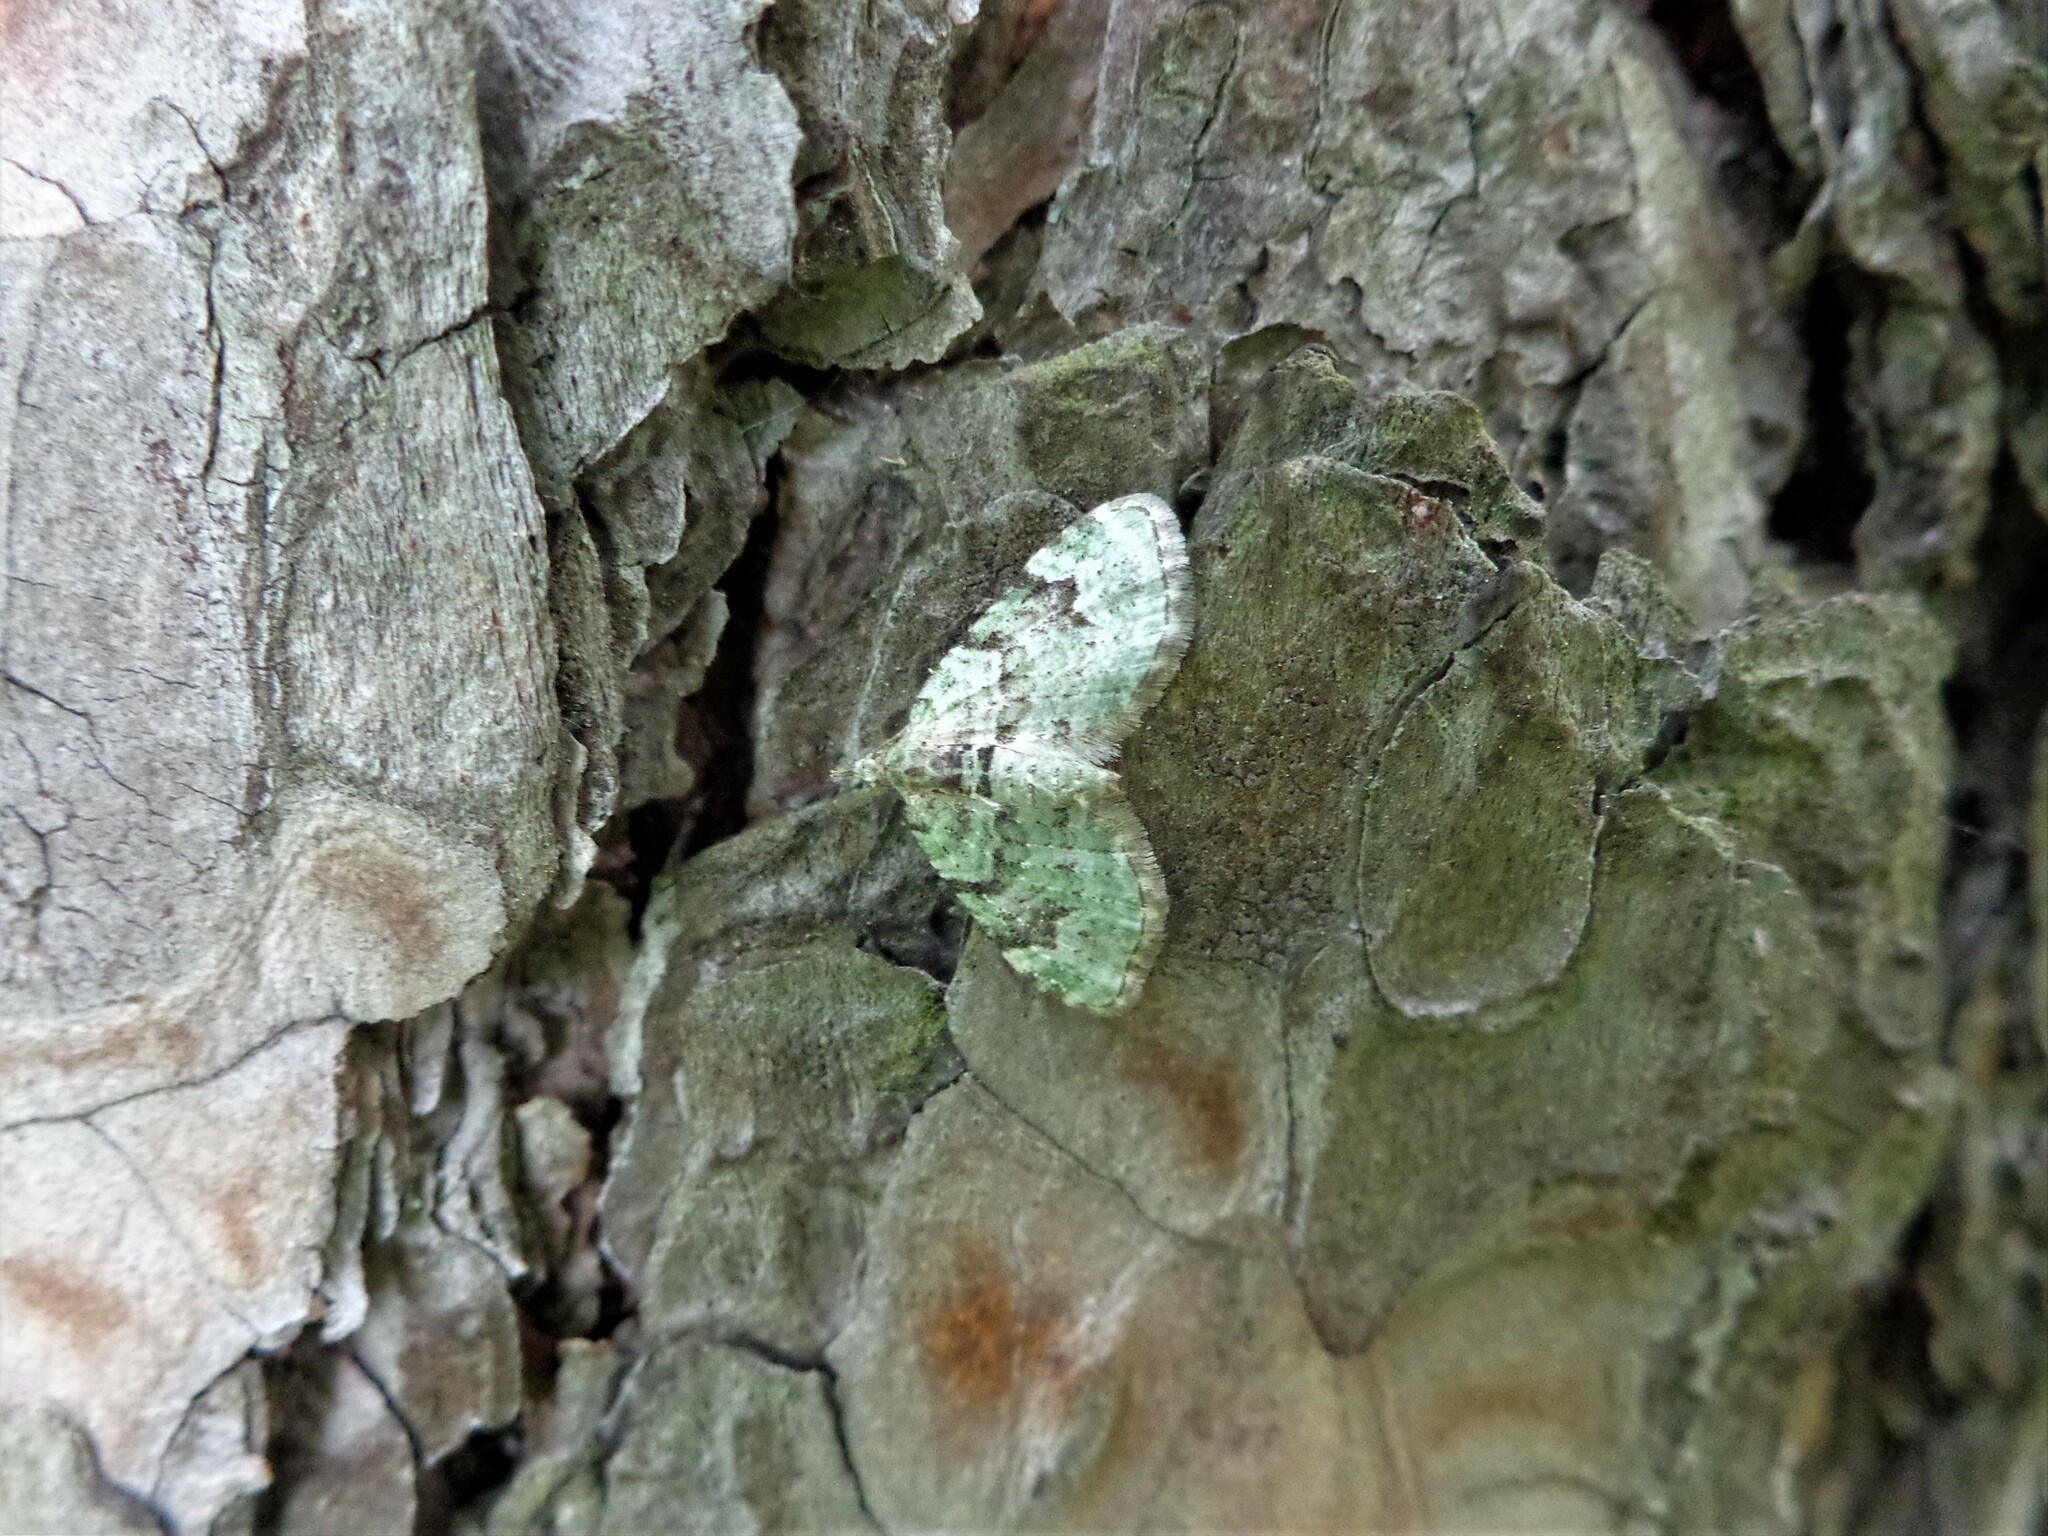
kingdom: Animalia
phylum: Arthropoda
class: Insecta
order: Lepidoptera
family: Geometridae
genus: Chloroclystis
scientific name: Chloroclystis v-ata
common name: V-pug
